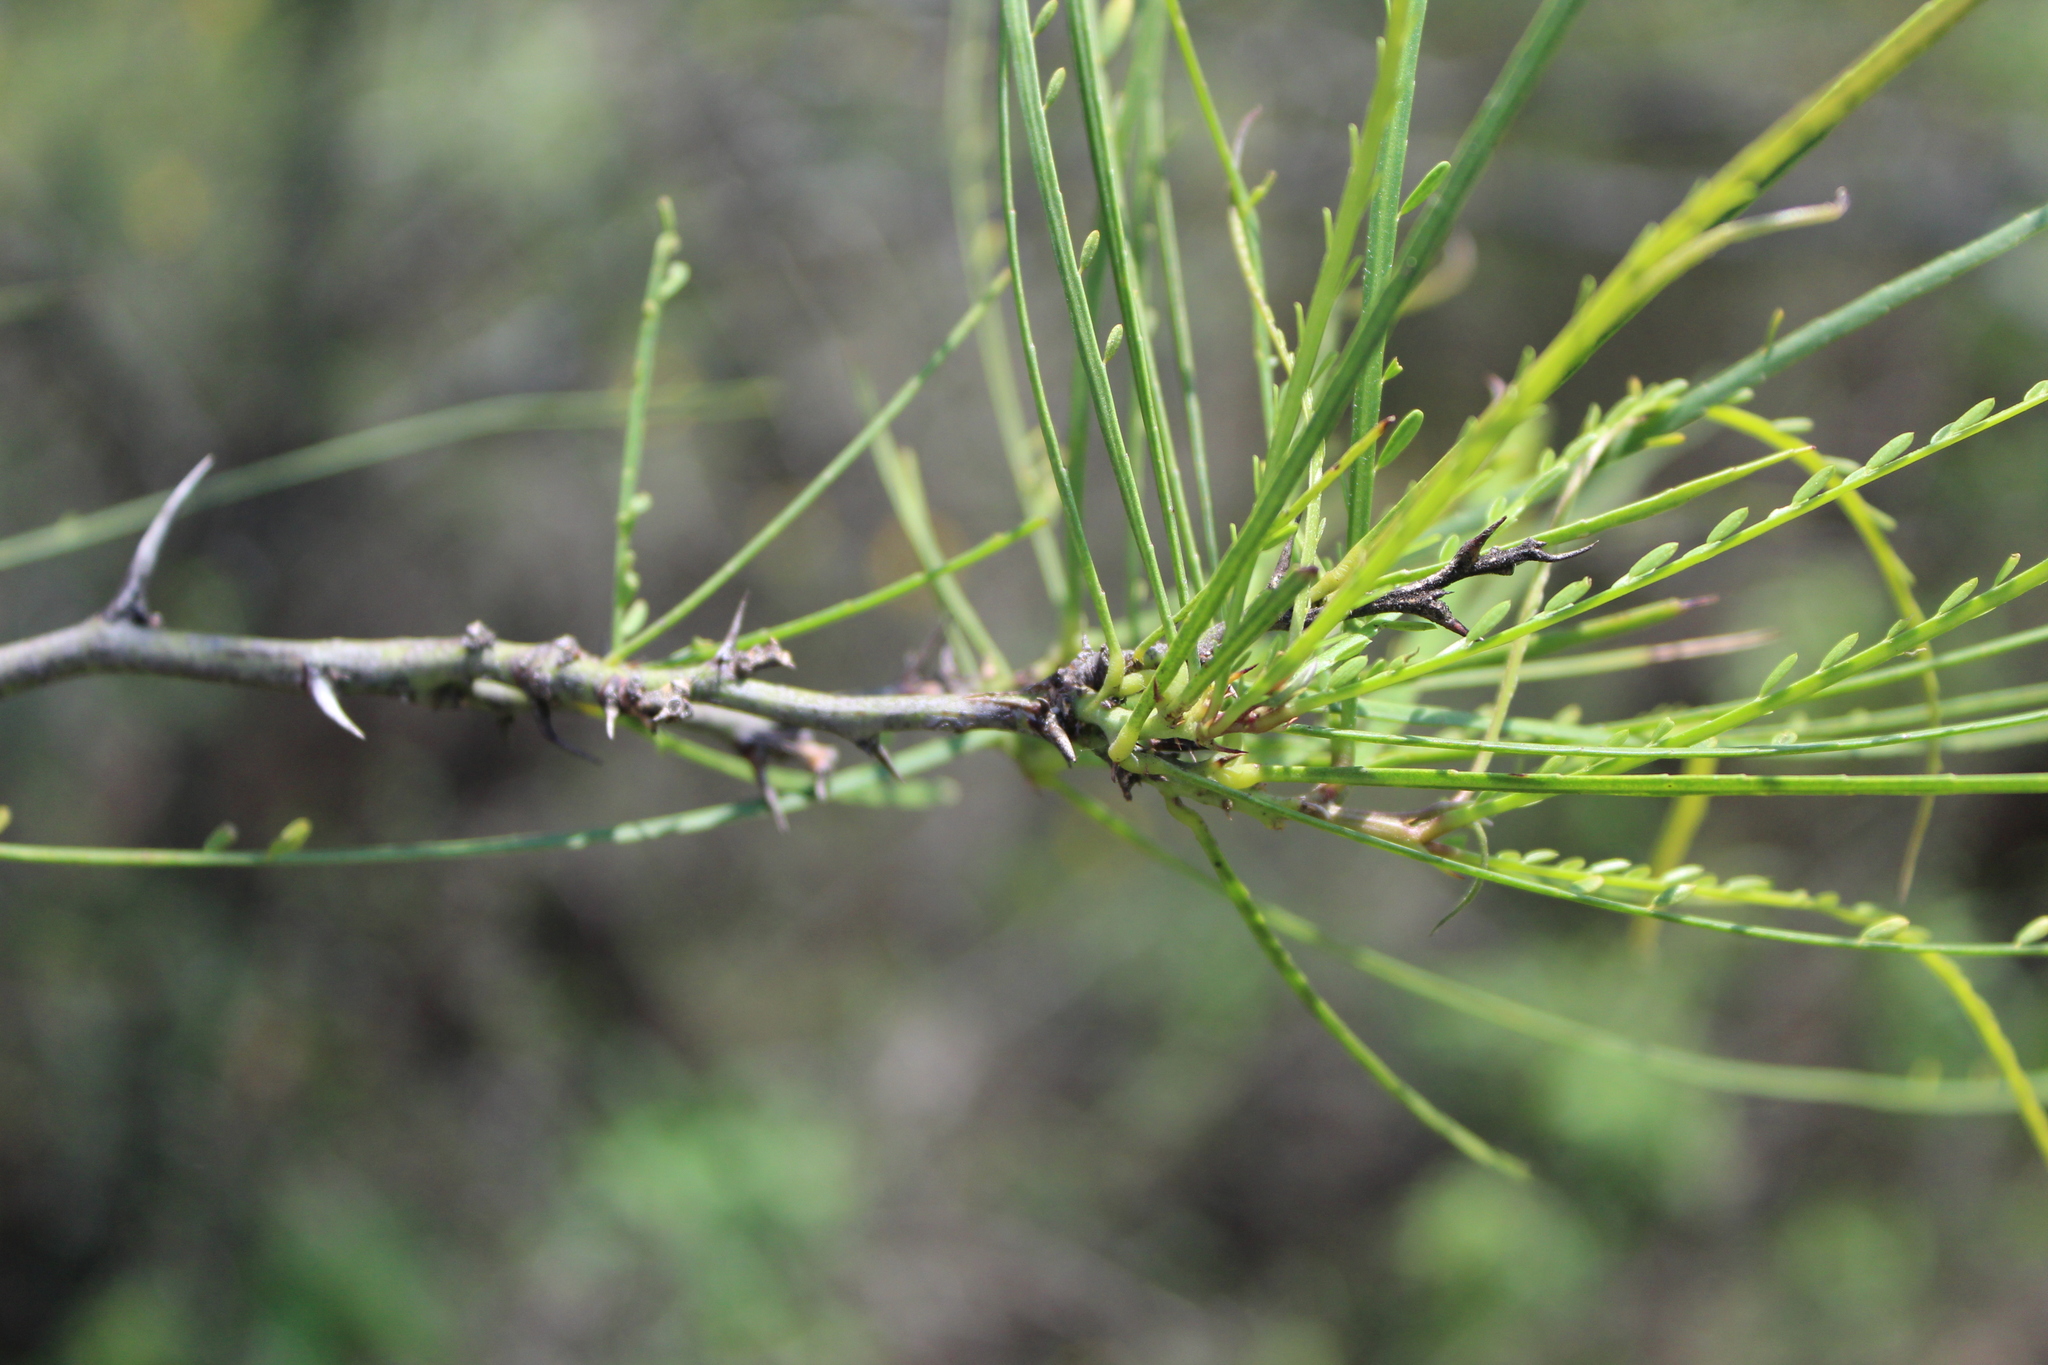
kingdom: Plantae
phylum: Tracheophyta
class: Magnoliopsida
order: Fabales
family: Fabaceae
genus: Parkinsonia
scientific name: Parkinsonia aculeata
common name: Jerusalem thorn
